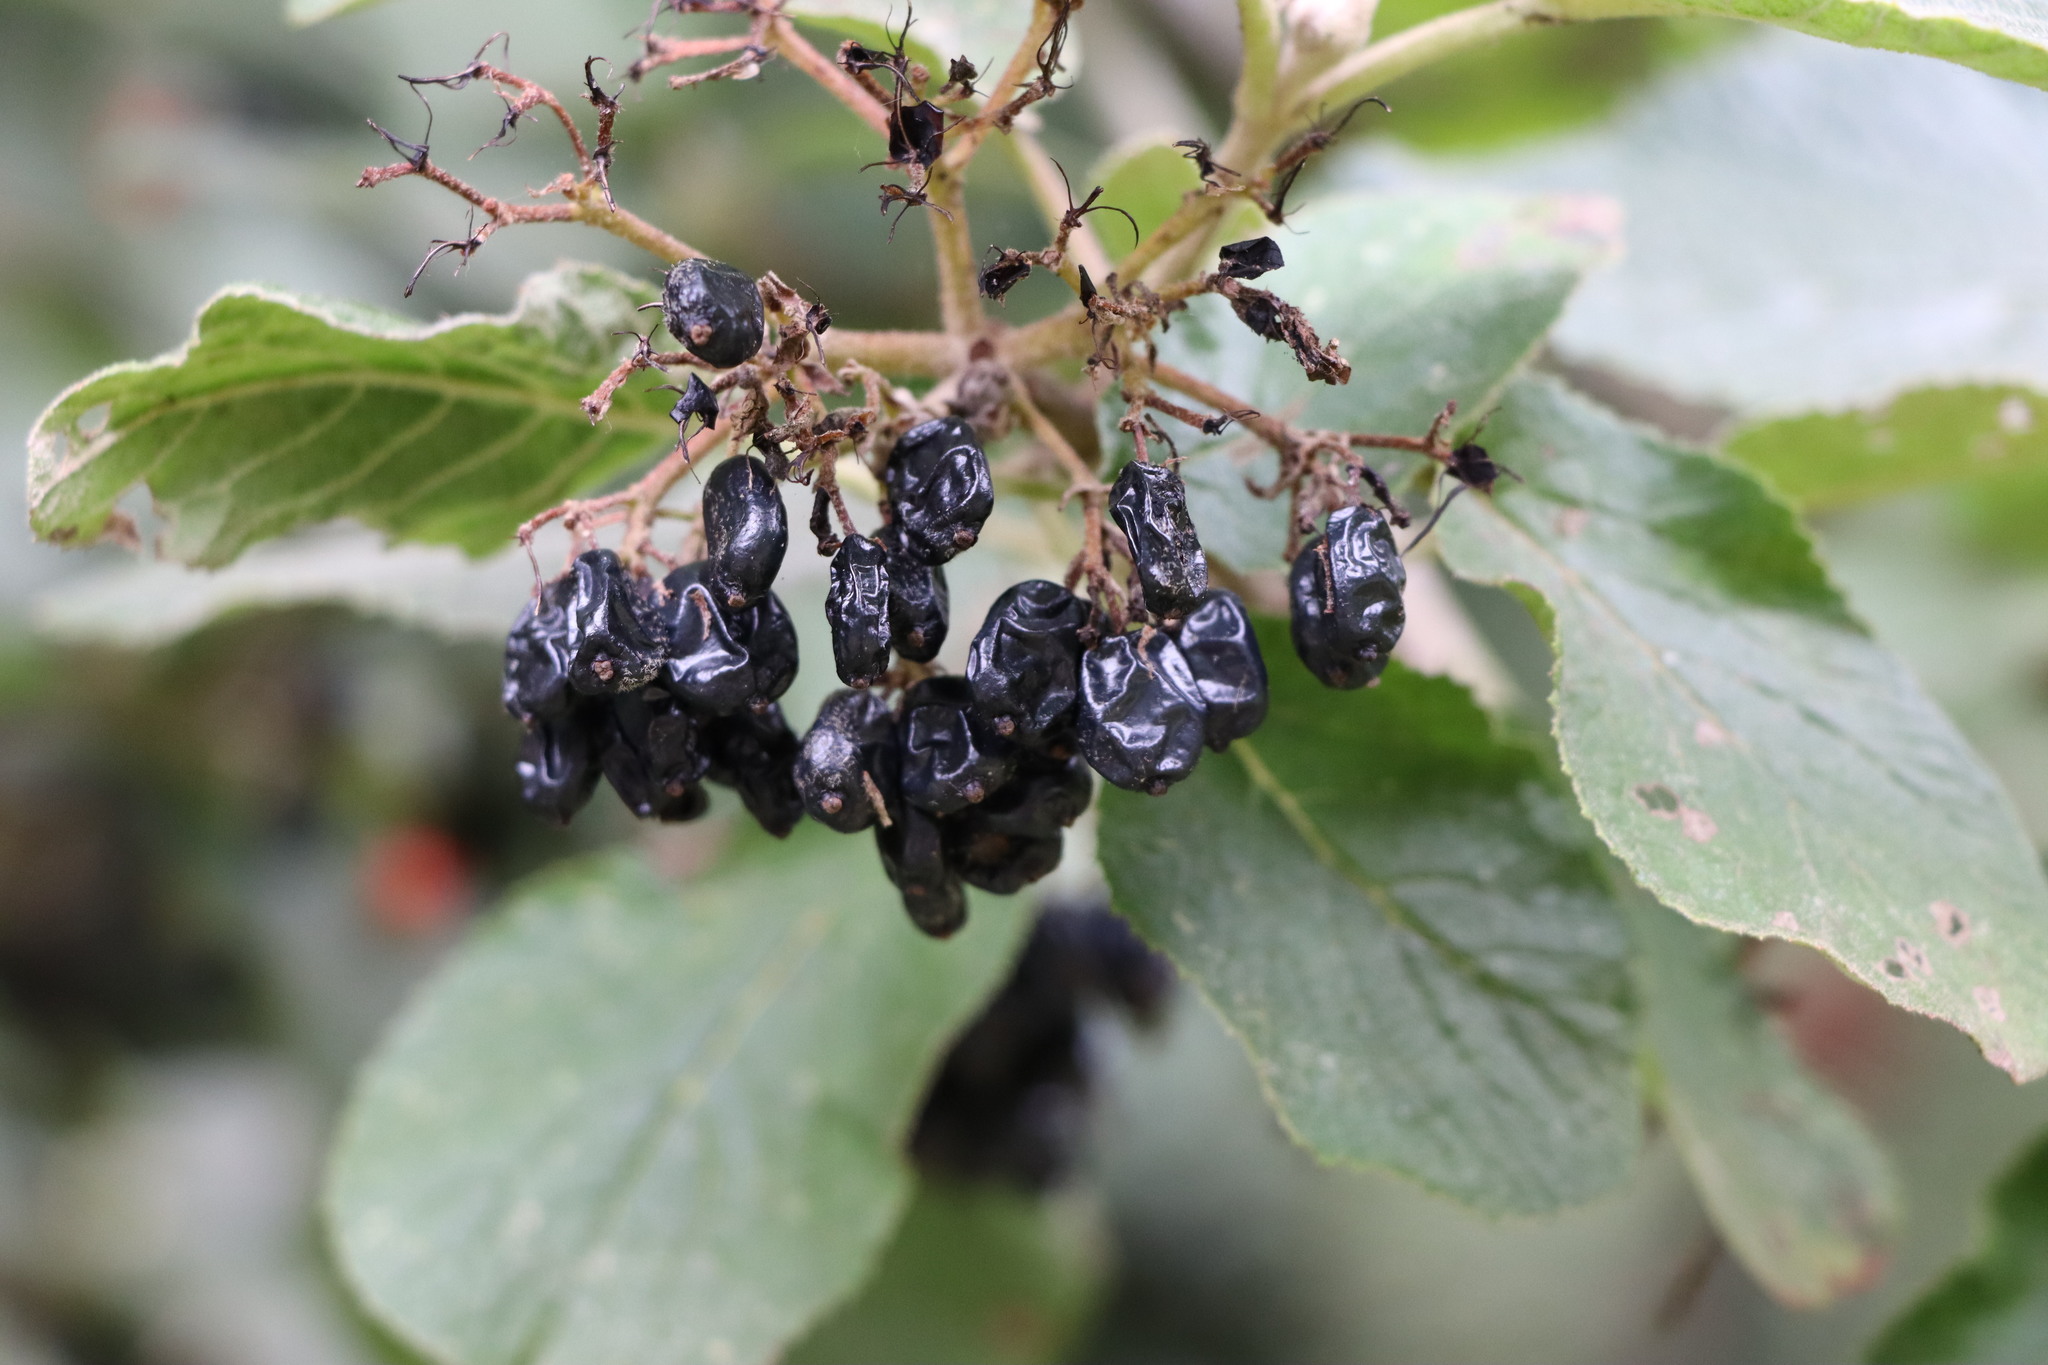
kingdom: Plantae
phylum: Tracheophyta
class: Magnoliopsida
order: Dipsacales
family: Viburnaceae
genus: Viburnum
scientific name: Viburnum lantana
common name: Wayfaring tree
